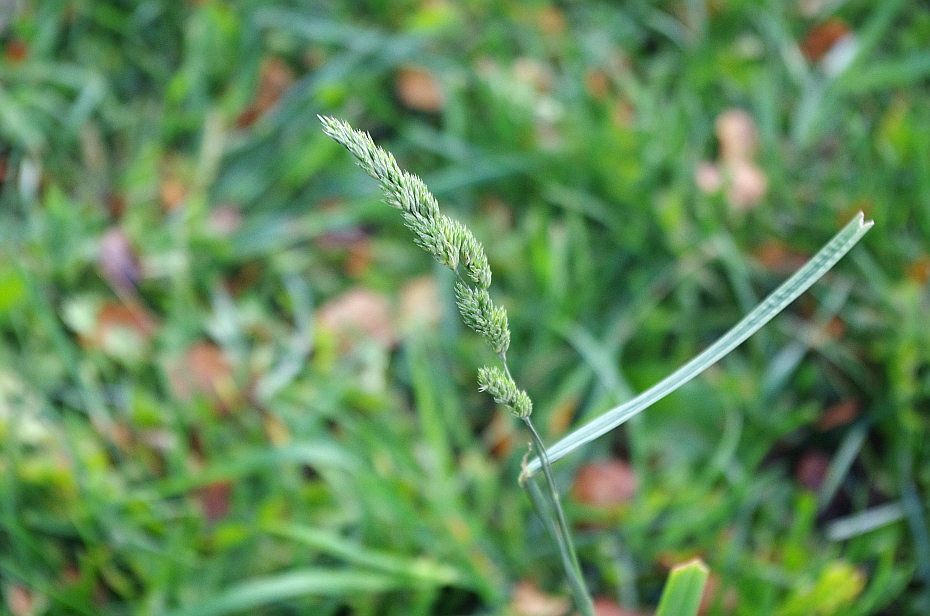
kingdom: Plantae
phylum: Tracheophyta
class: Liliopsida
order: Poales
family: Poaceae
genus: Dactylis
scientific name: Dactylis glomerata
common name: Orchardgrass
